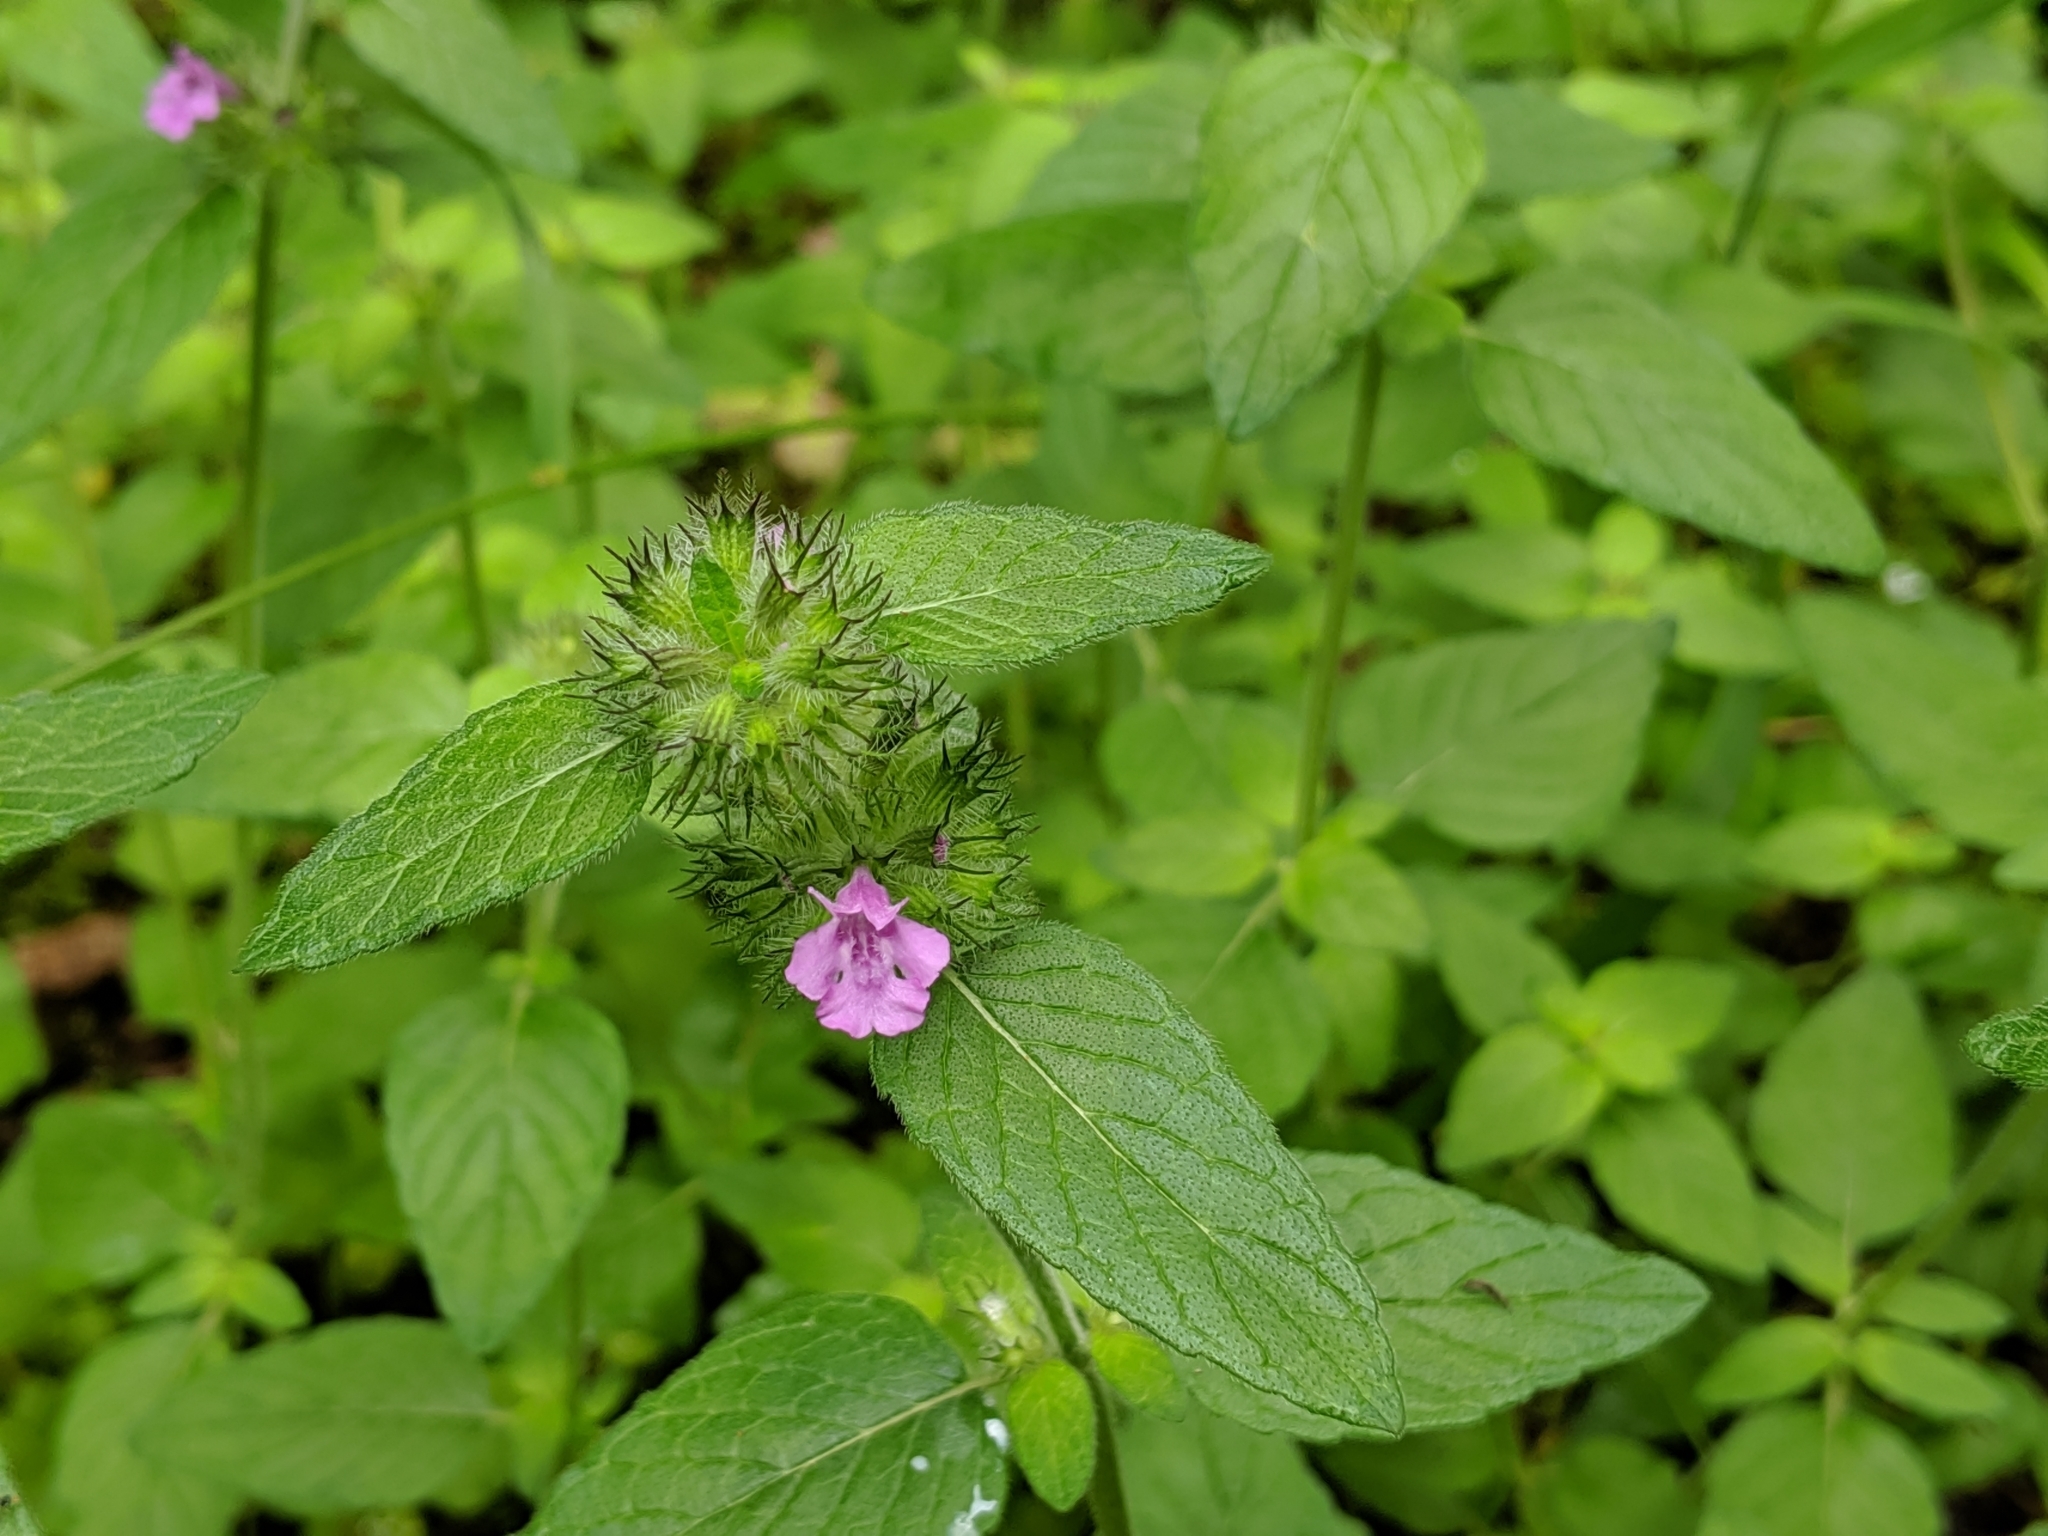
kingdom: Plantae
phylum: Tracheophyta
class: Magnoliopsida
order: Lamiales
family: Lamiaceae
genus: Clinopodium
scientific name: Clinopodium vulgare
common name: Wild basil
